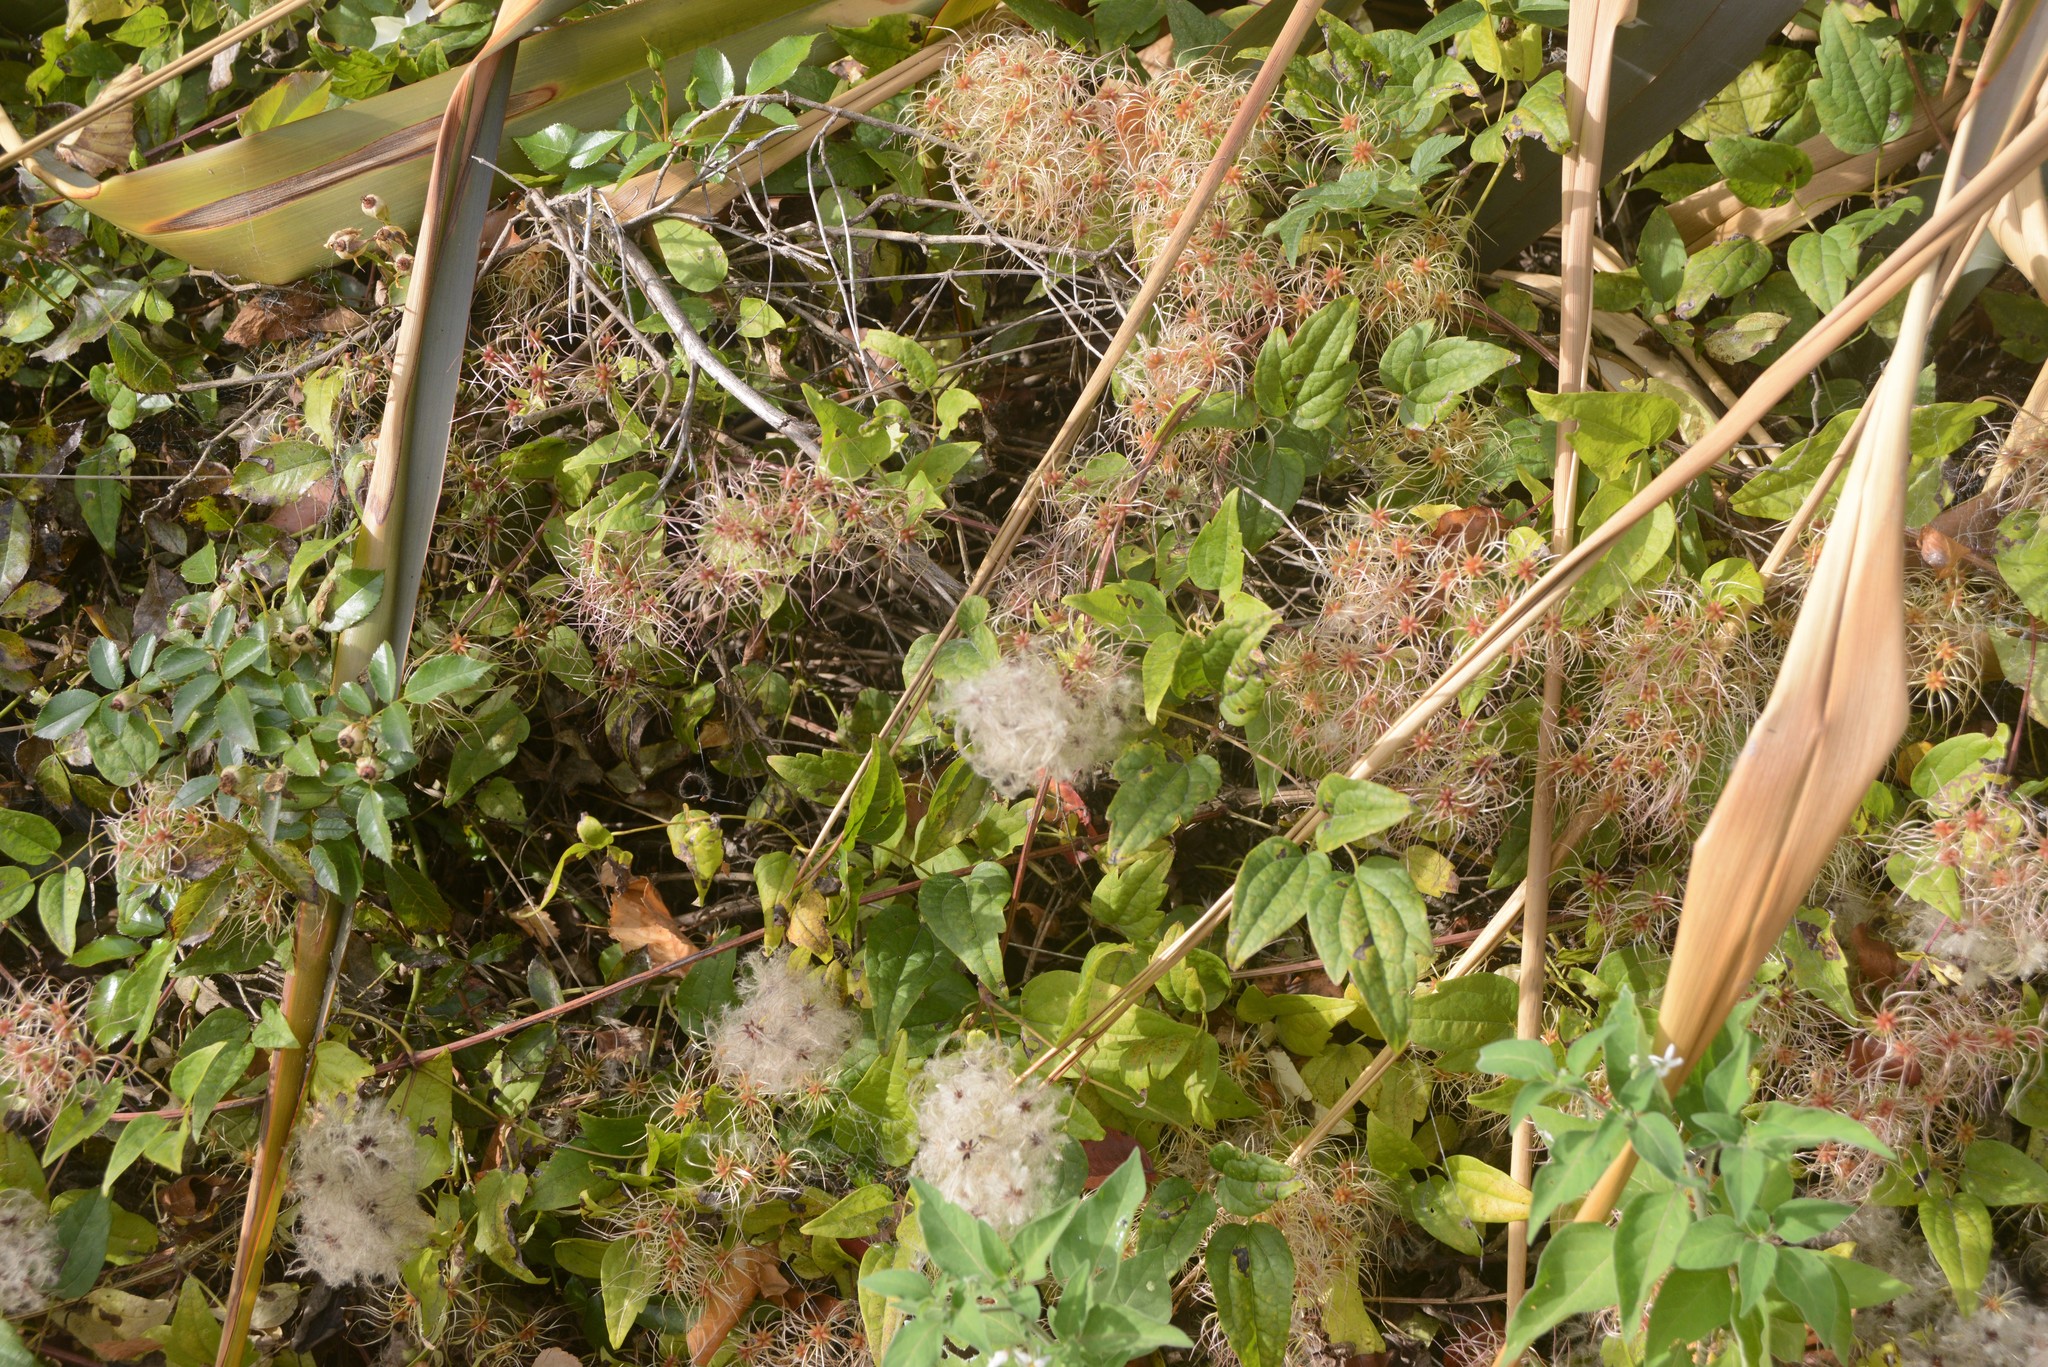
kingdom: Plantae
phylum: Tracheophyta
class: Magnoliopsida
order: Ranunculales
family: Ranunculaceae
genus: Clematis
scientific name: Clematis vitalba
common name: Evergreen clematis
